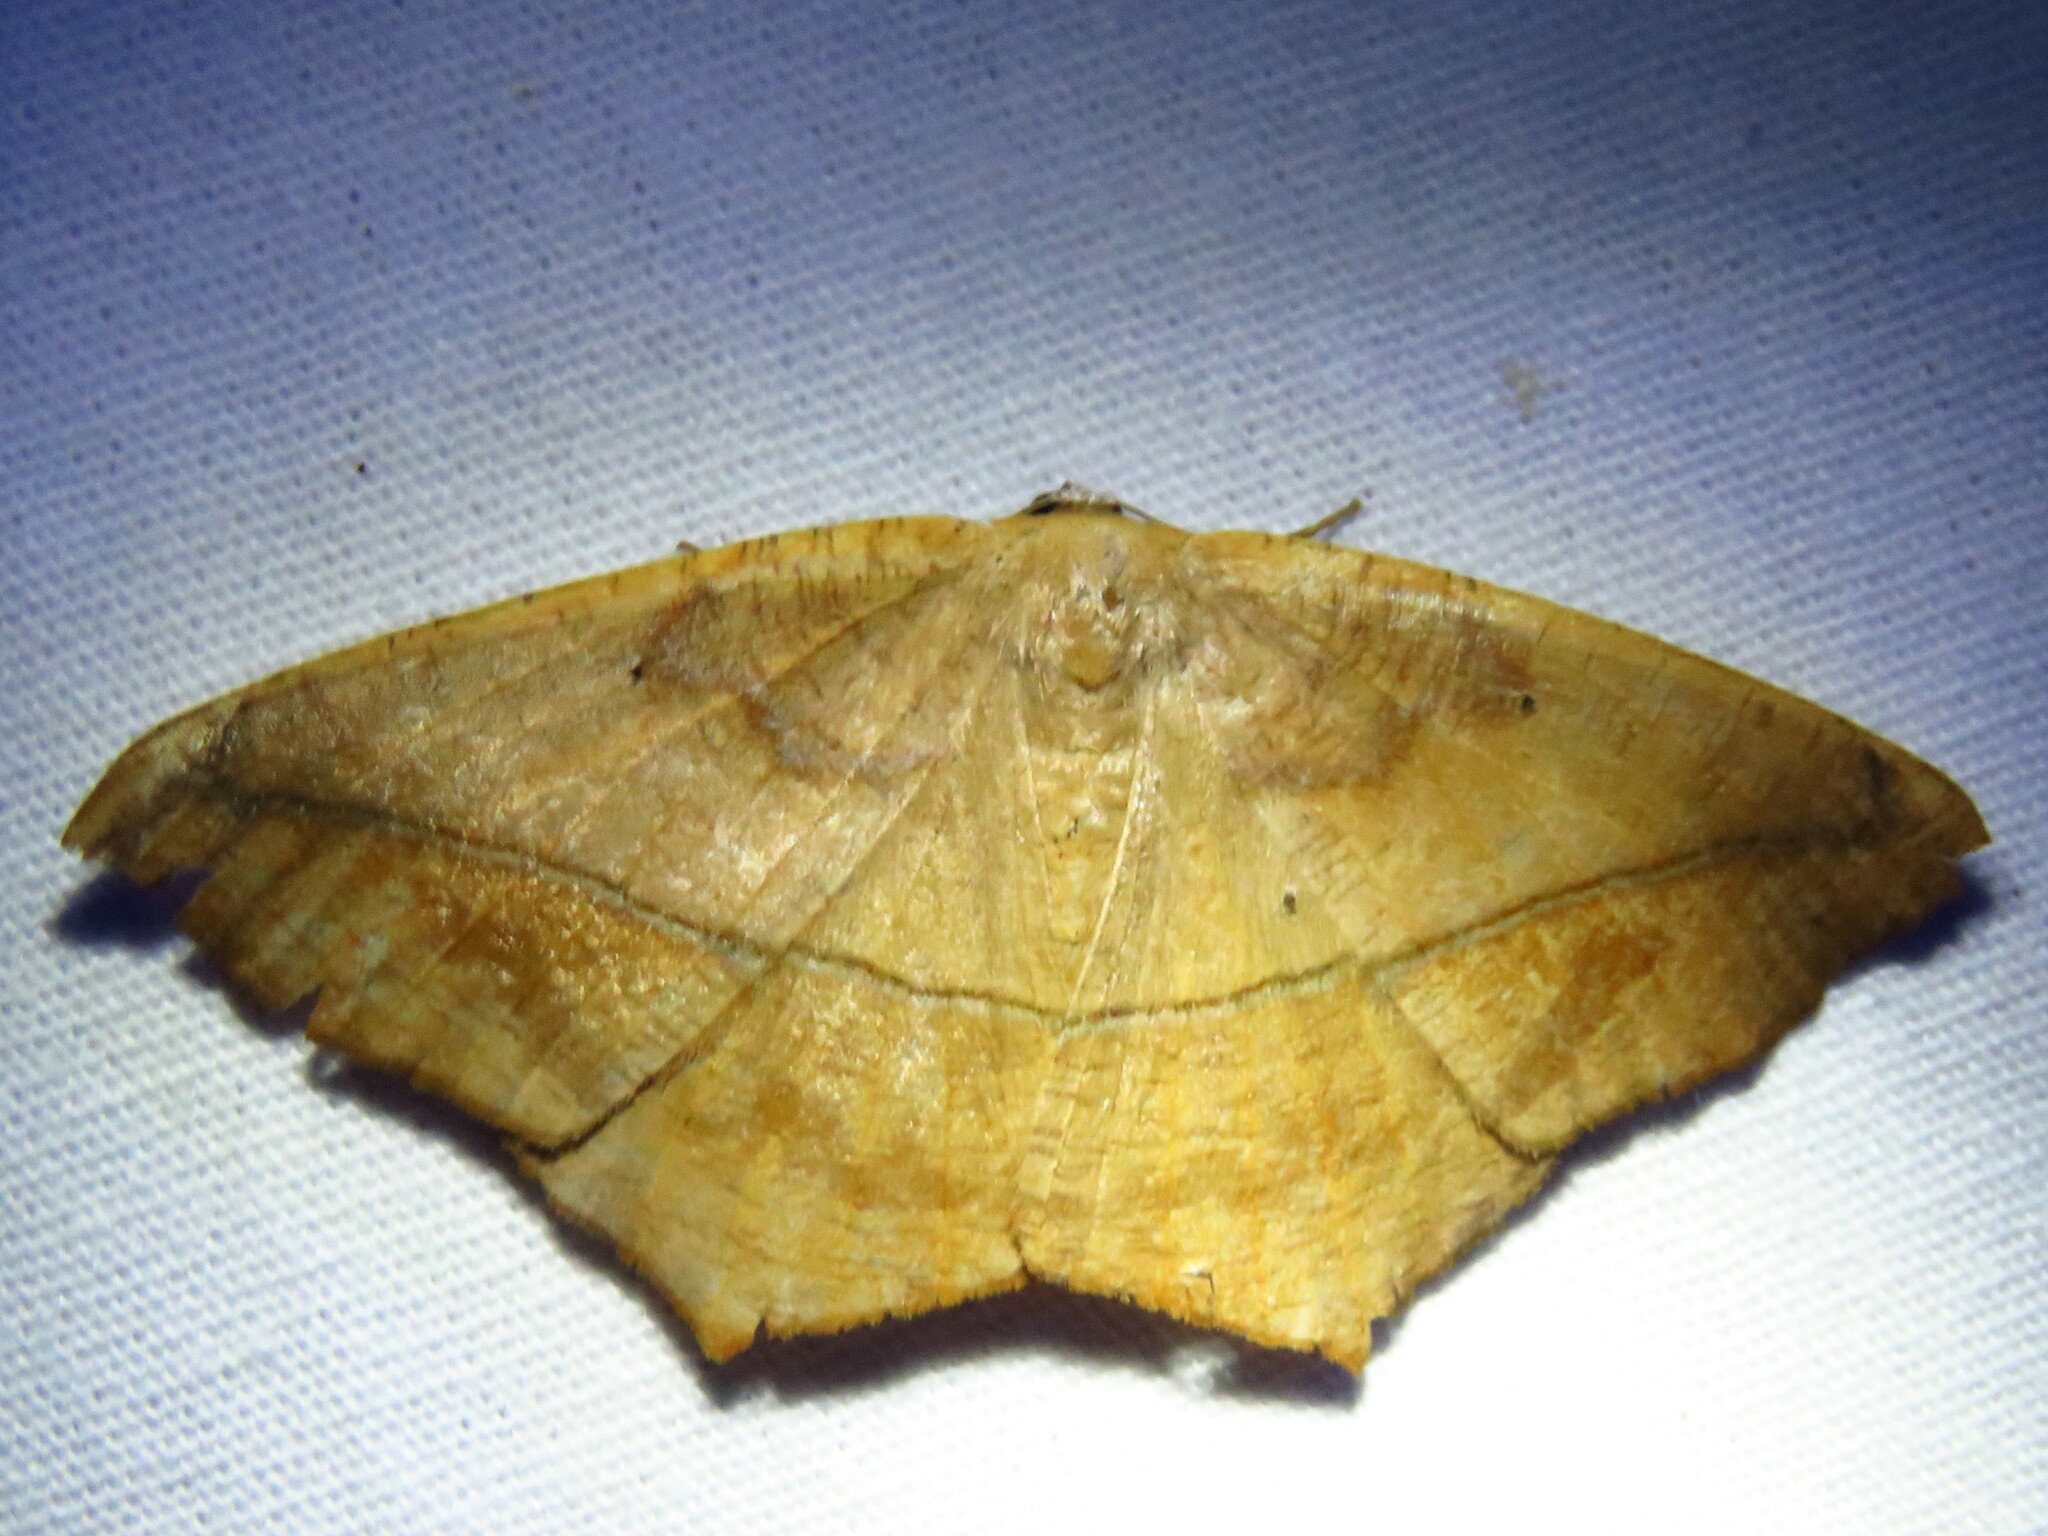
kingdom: Animalia
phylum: Arthropoda
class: Insecta
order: Lepidoptera
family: Geometridae
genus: Prochoerodes
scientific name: Prochoerodes lineola
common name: Large maple spanworm
